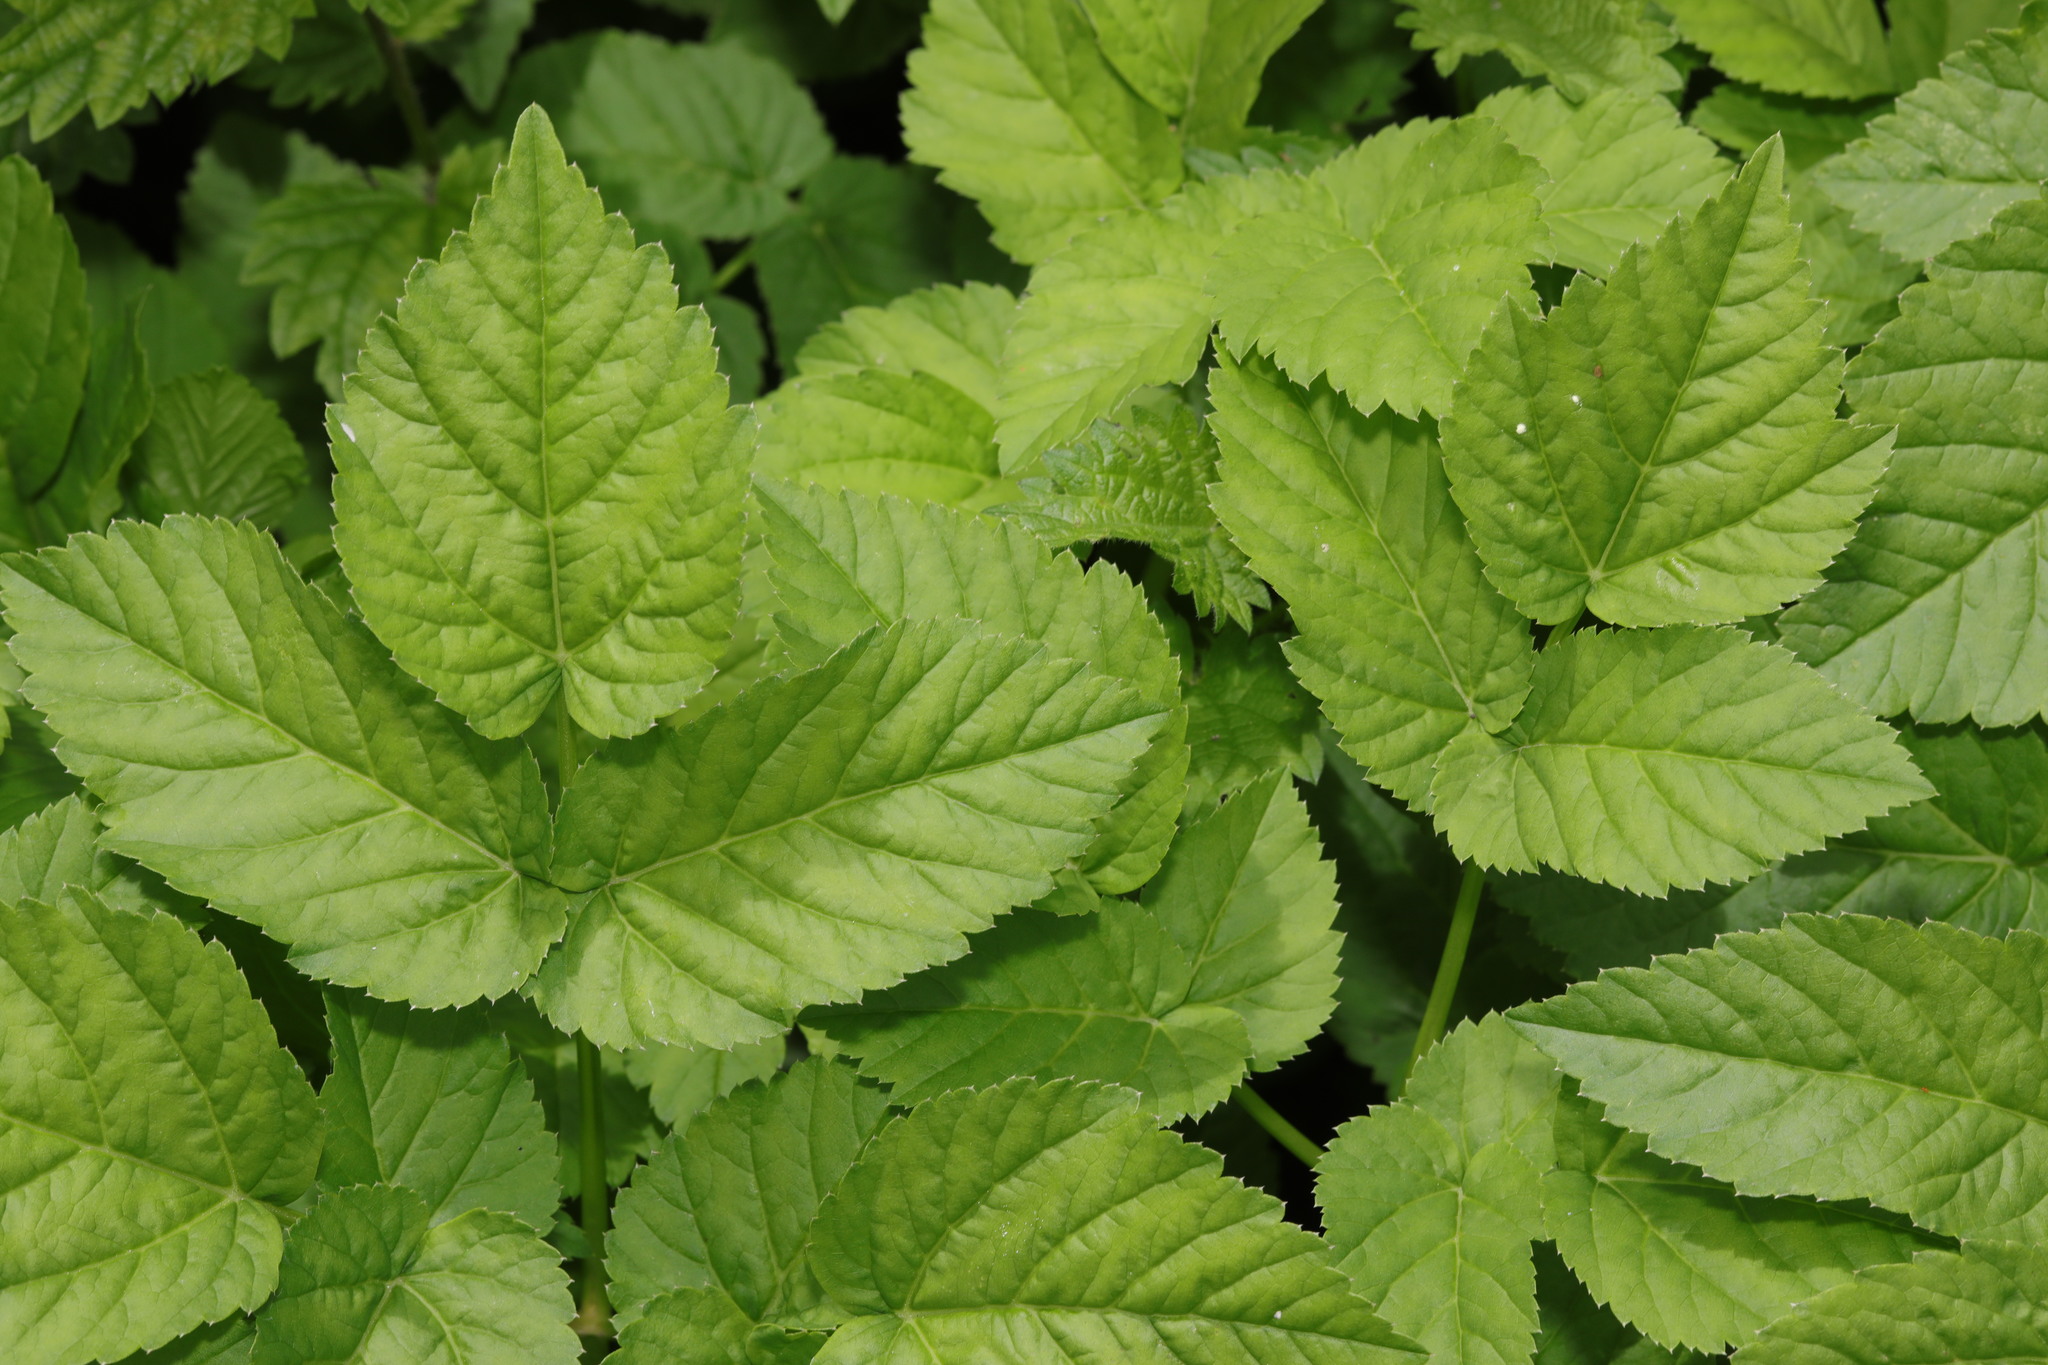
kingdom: Plantae
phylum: Tracheophyta
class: Magnoliopsida
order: Apiales
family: Apiaceae
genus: Aegopodium
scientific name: Aegopodium podagraria
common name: Ground-elder
